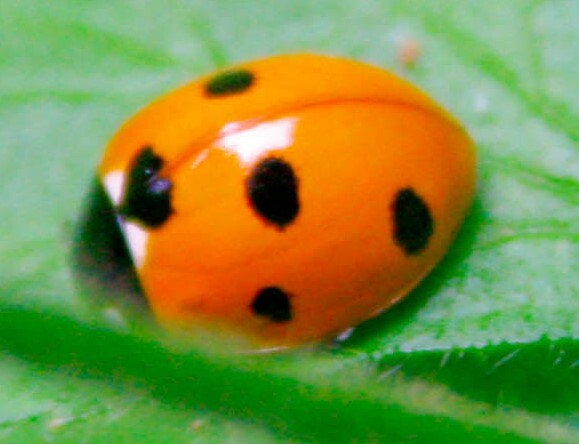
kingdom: Animalia
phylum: Arthropoda
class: Insecta
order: Coleoptera
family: Coccinellidae
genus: Coccinella
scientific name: Coccinella septempunctata
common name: Sevenspotted lady beetle
